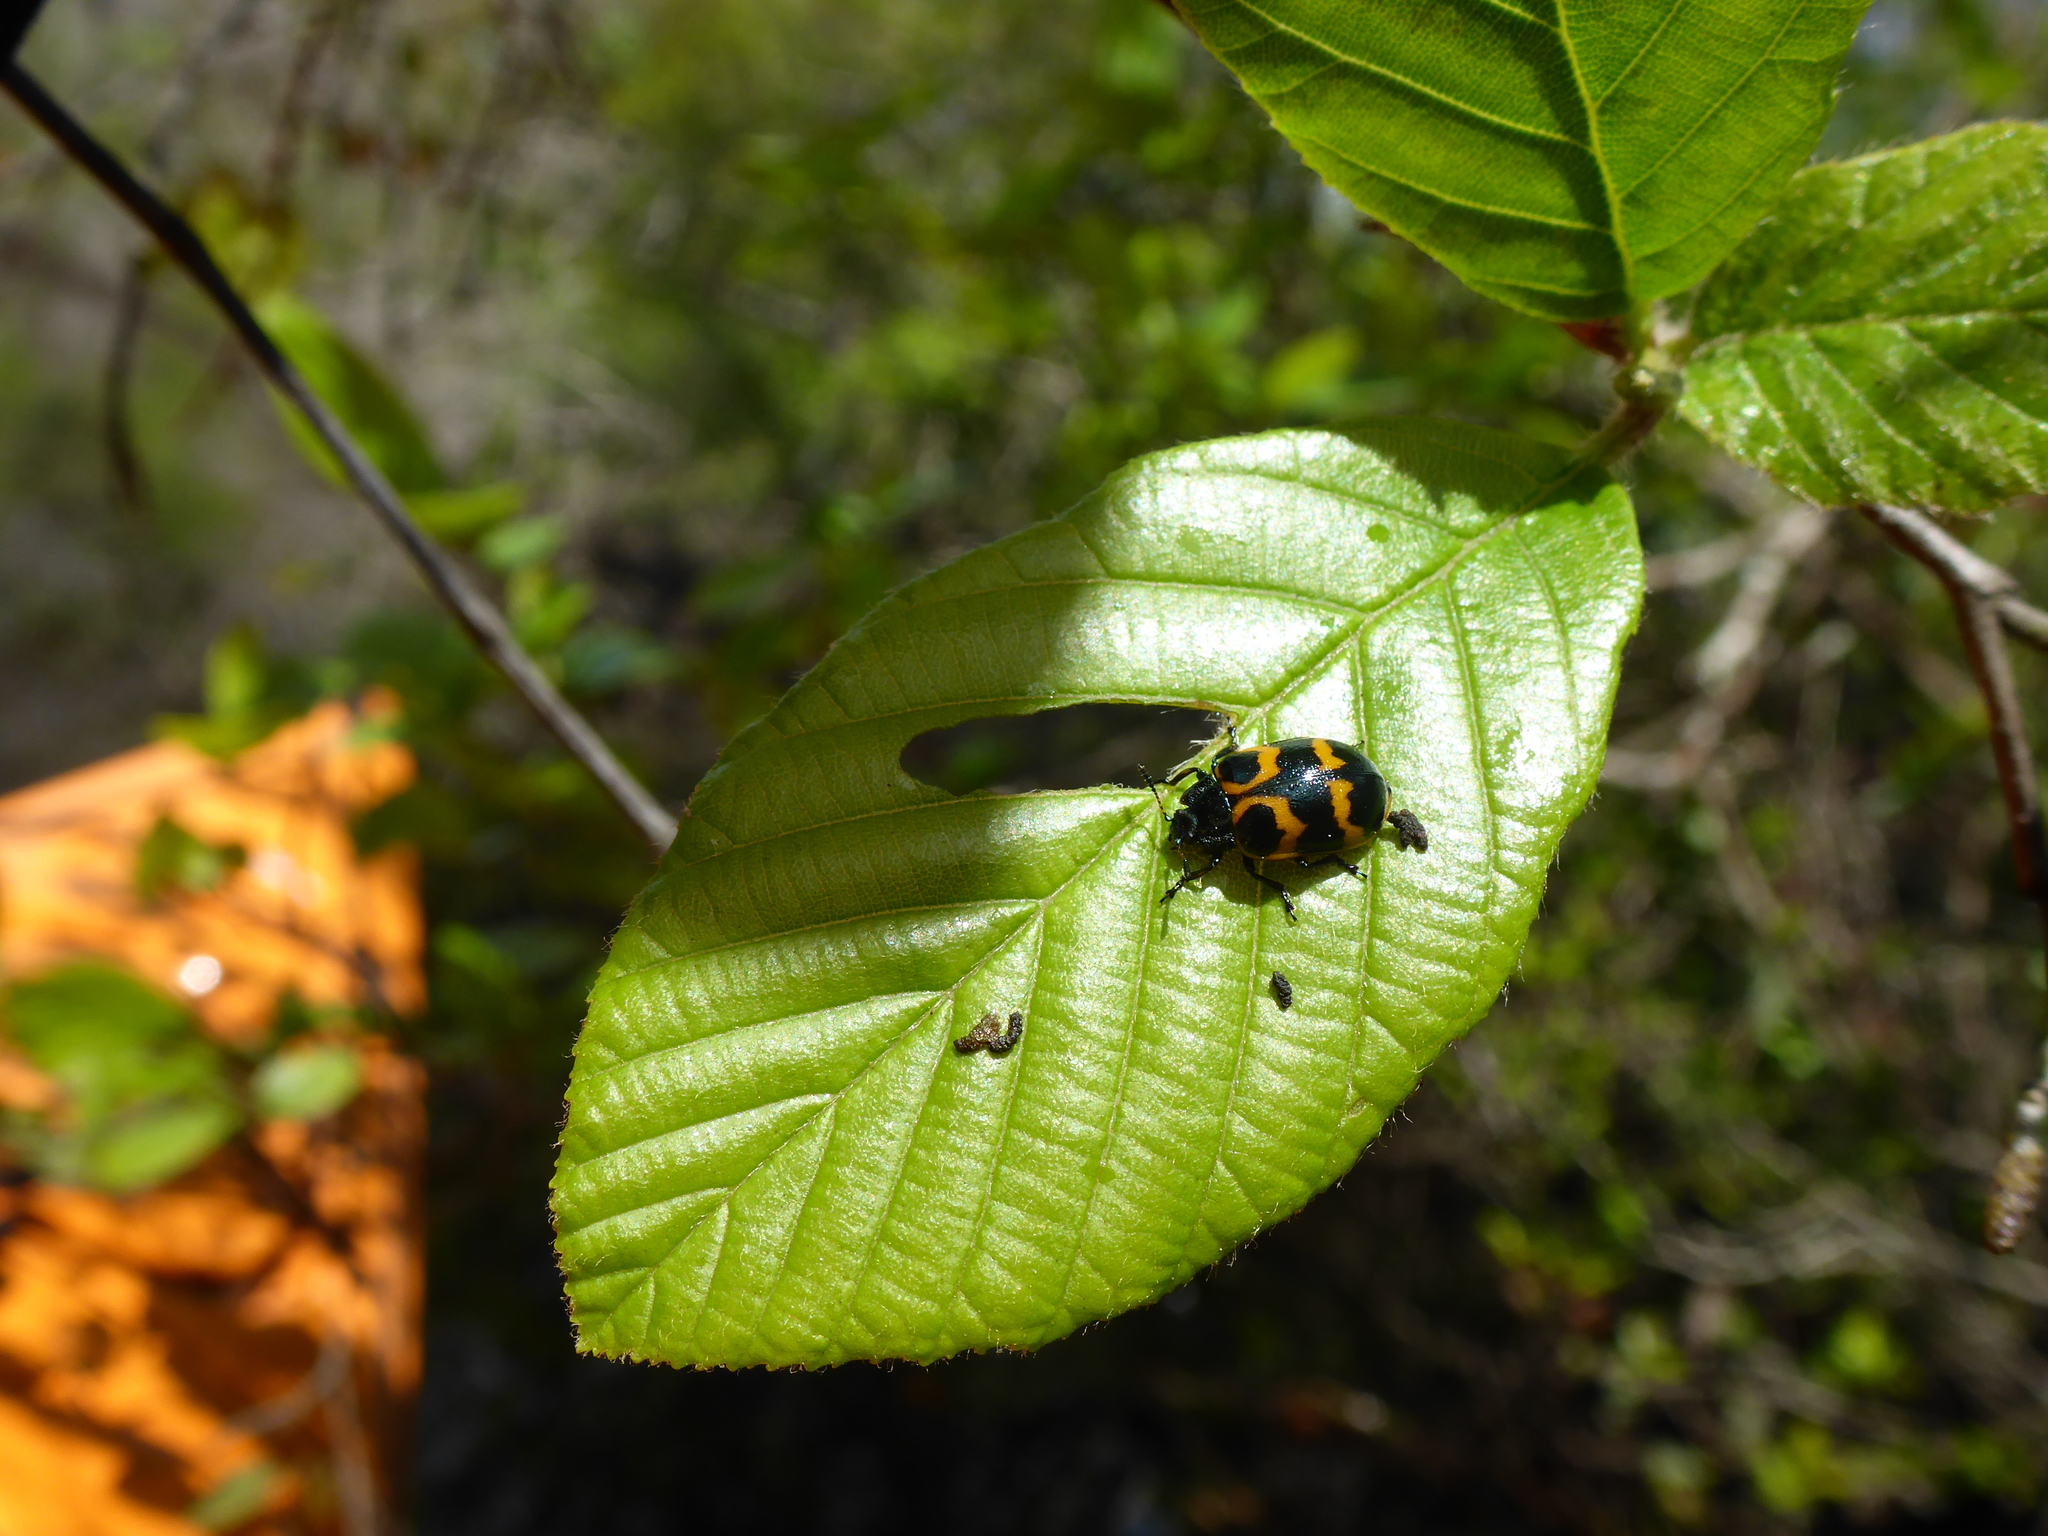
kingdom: Animalia
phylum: Arthropoda
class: Insecta
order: Coleoptera
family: Chrysomelidae
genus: Chrysomela
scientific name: Chrysomela interrupta
